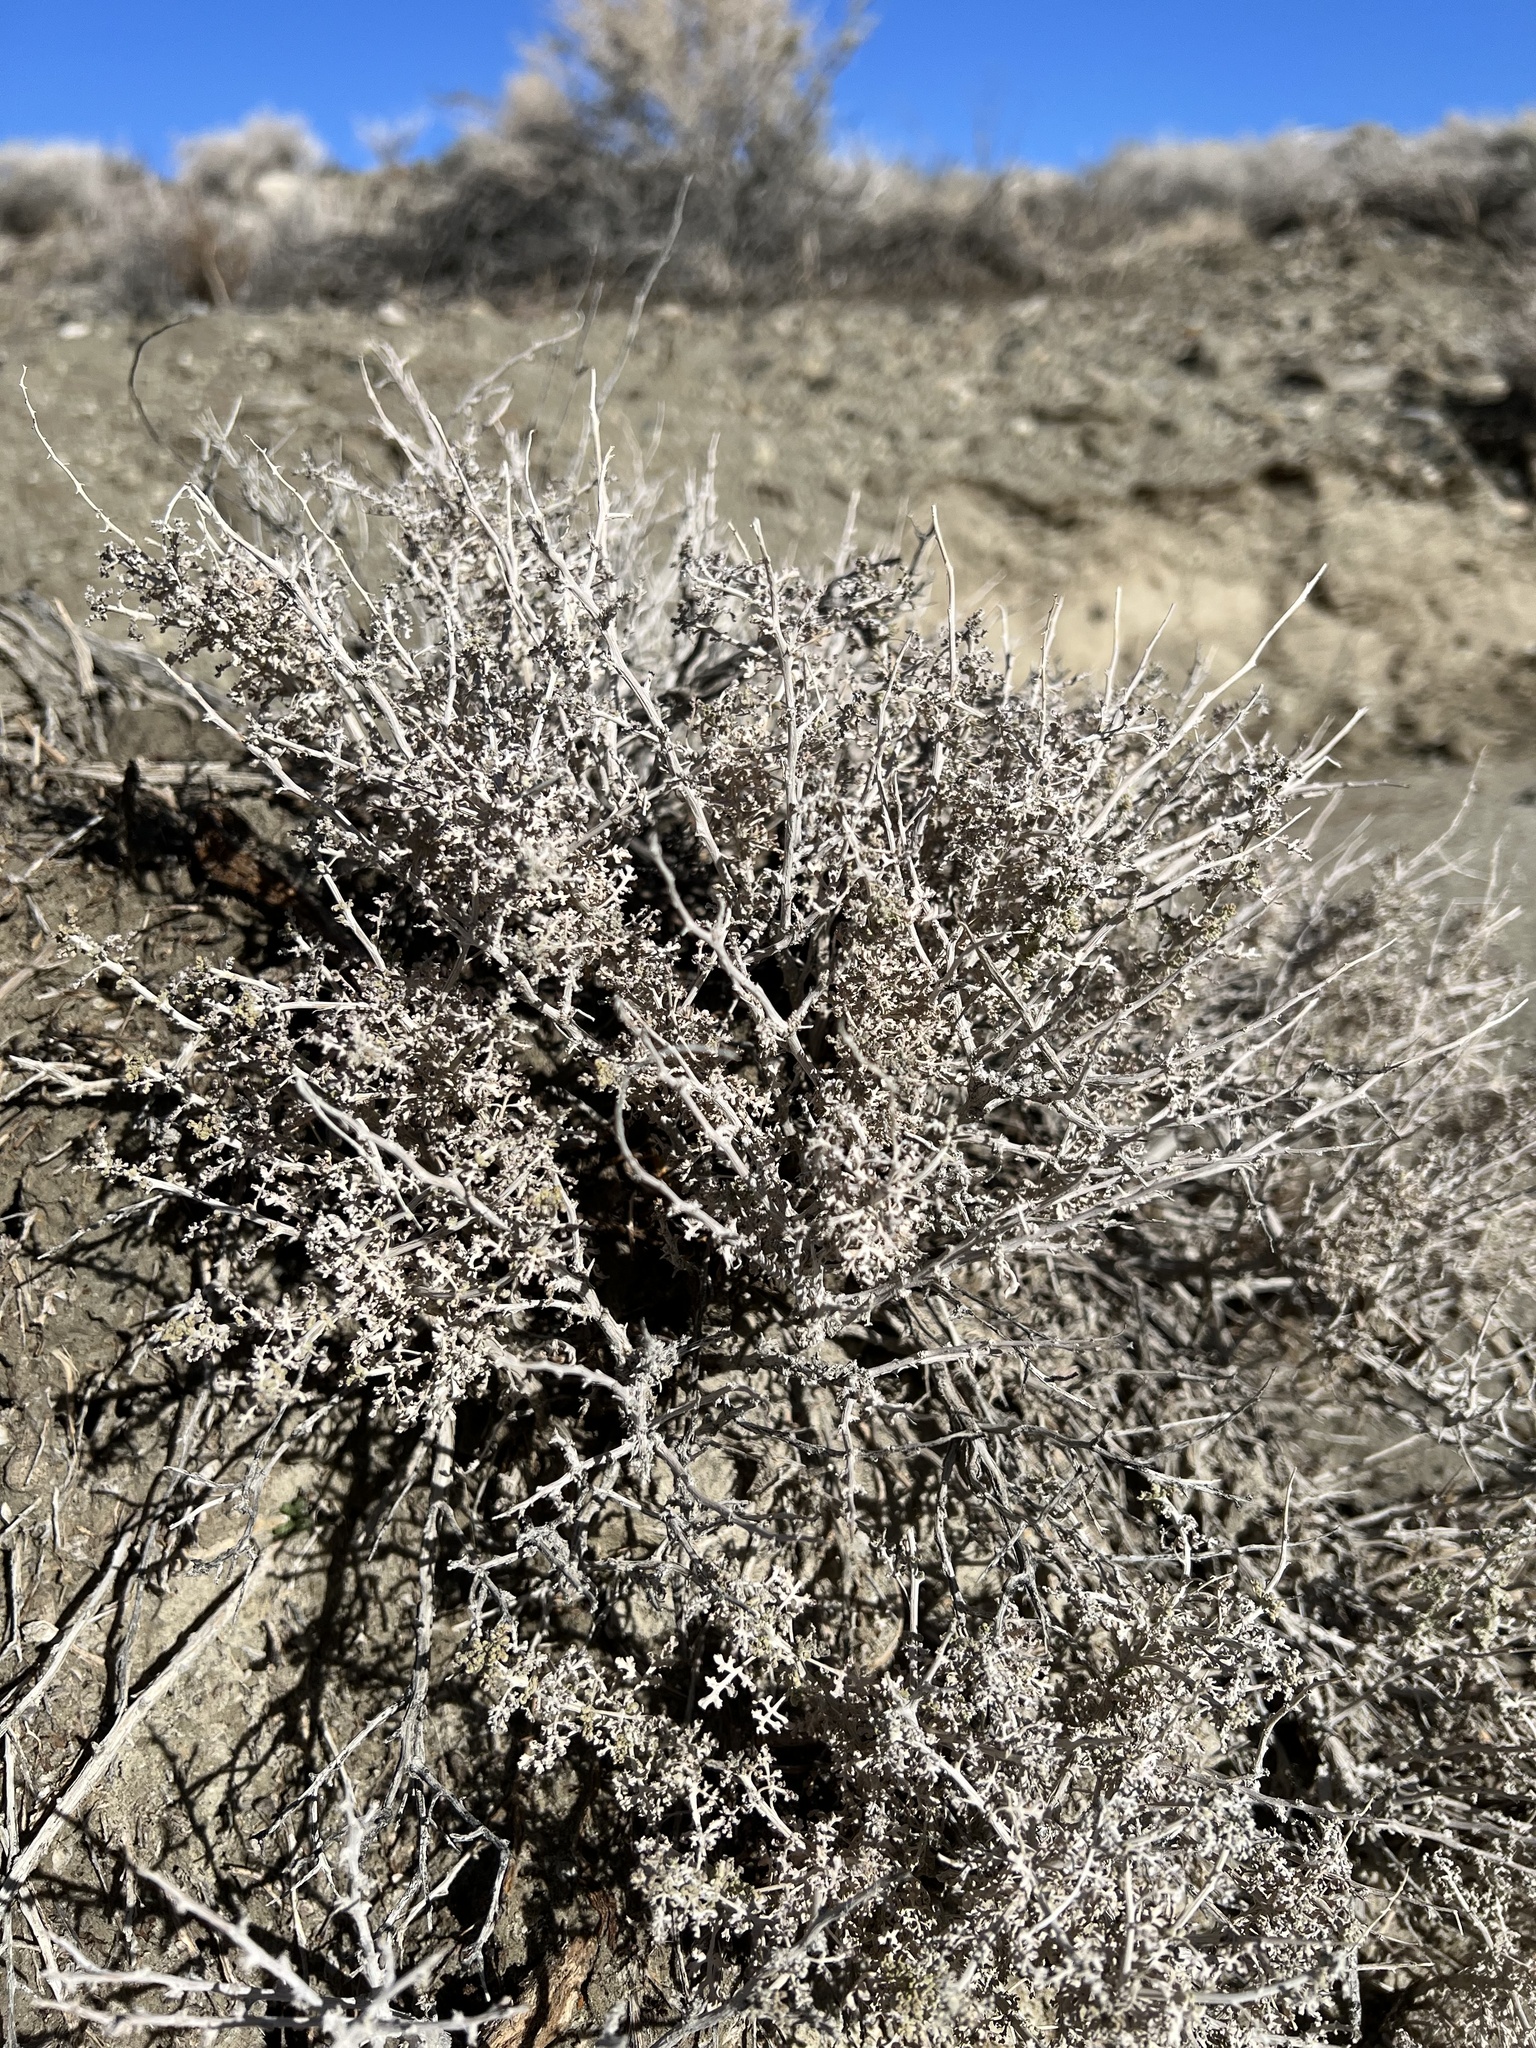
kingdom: Plantae
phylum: Tracheophyta
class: Magnoliopsida
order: Asterales
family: Asteraceae
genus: Ambrosia
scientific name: Ambrosia dumosa
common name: Bur-sage
